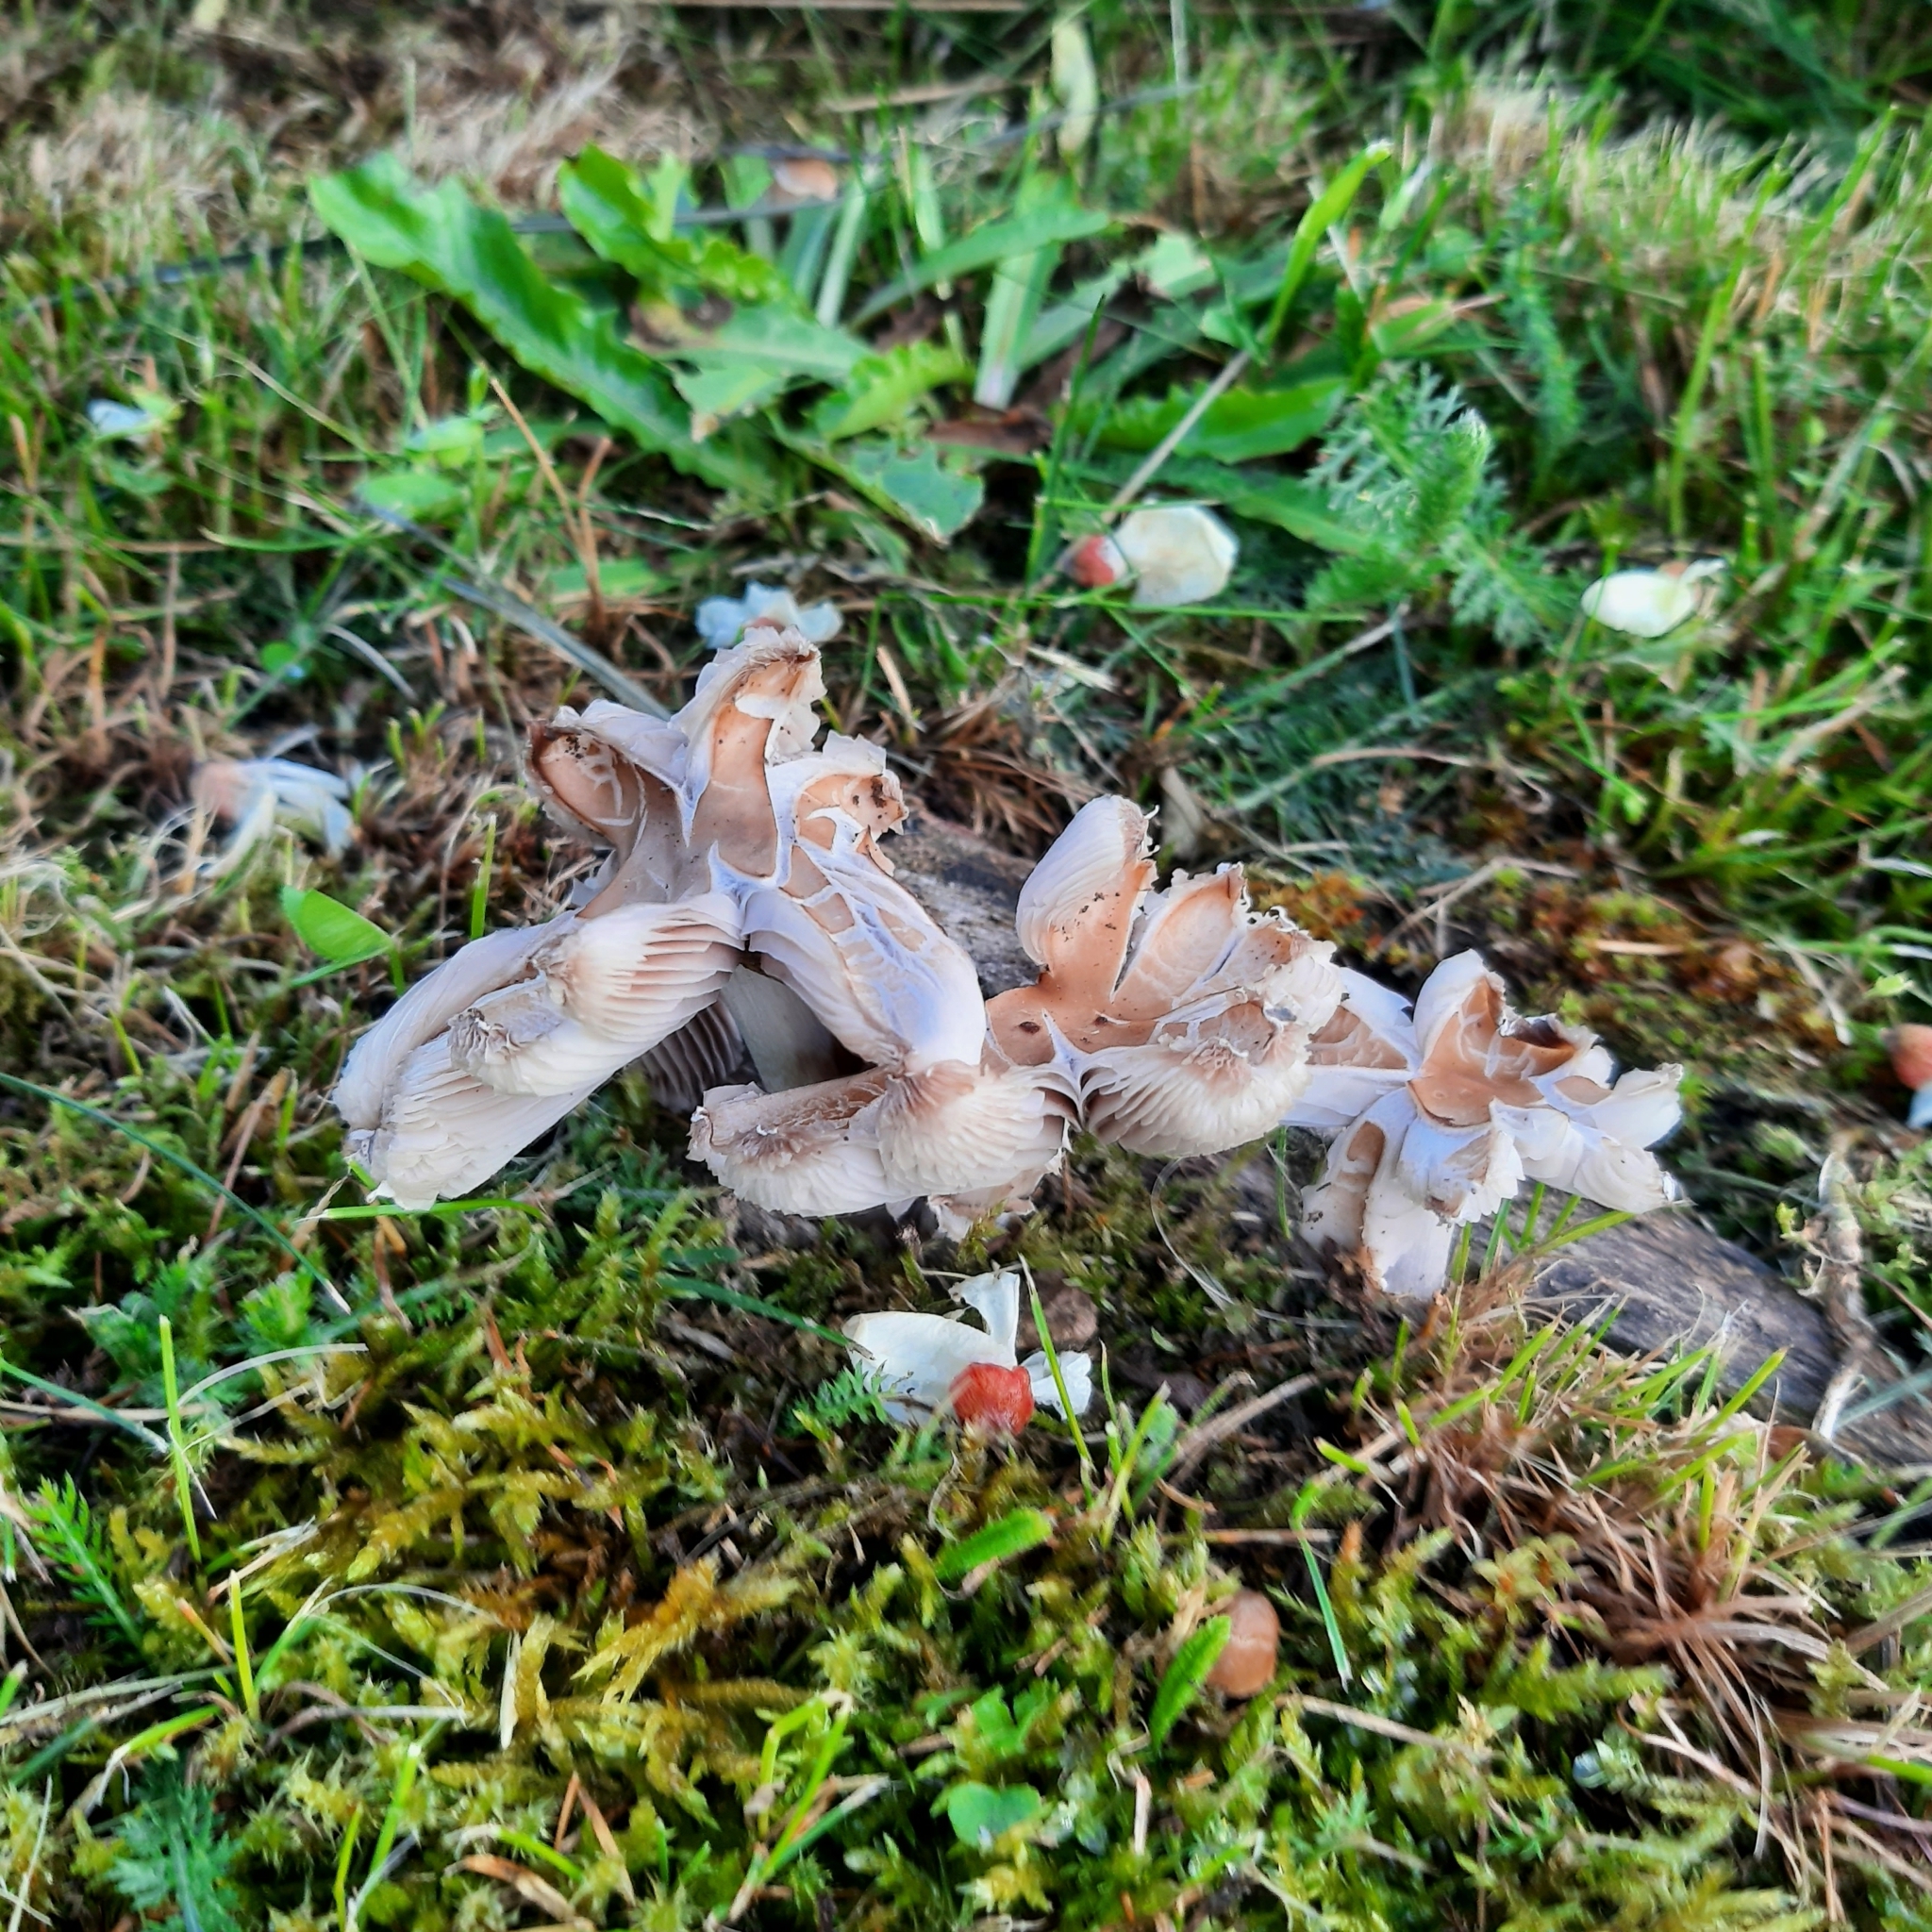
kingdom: Fungi
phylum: Basidiomycota
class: Agaricomycetes
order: Agaricales
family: Psathyrellaceae
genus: Candolleomyces
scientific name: Candolleomyces candolleanus
